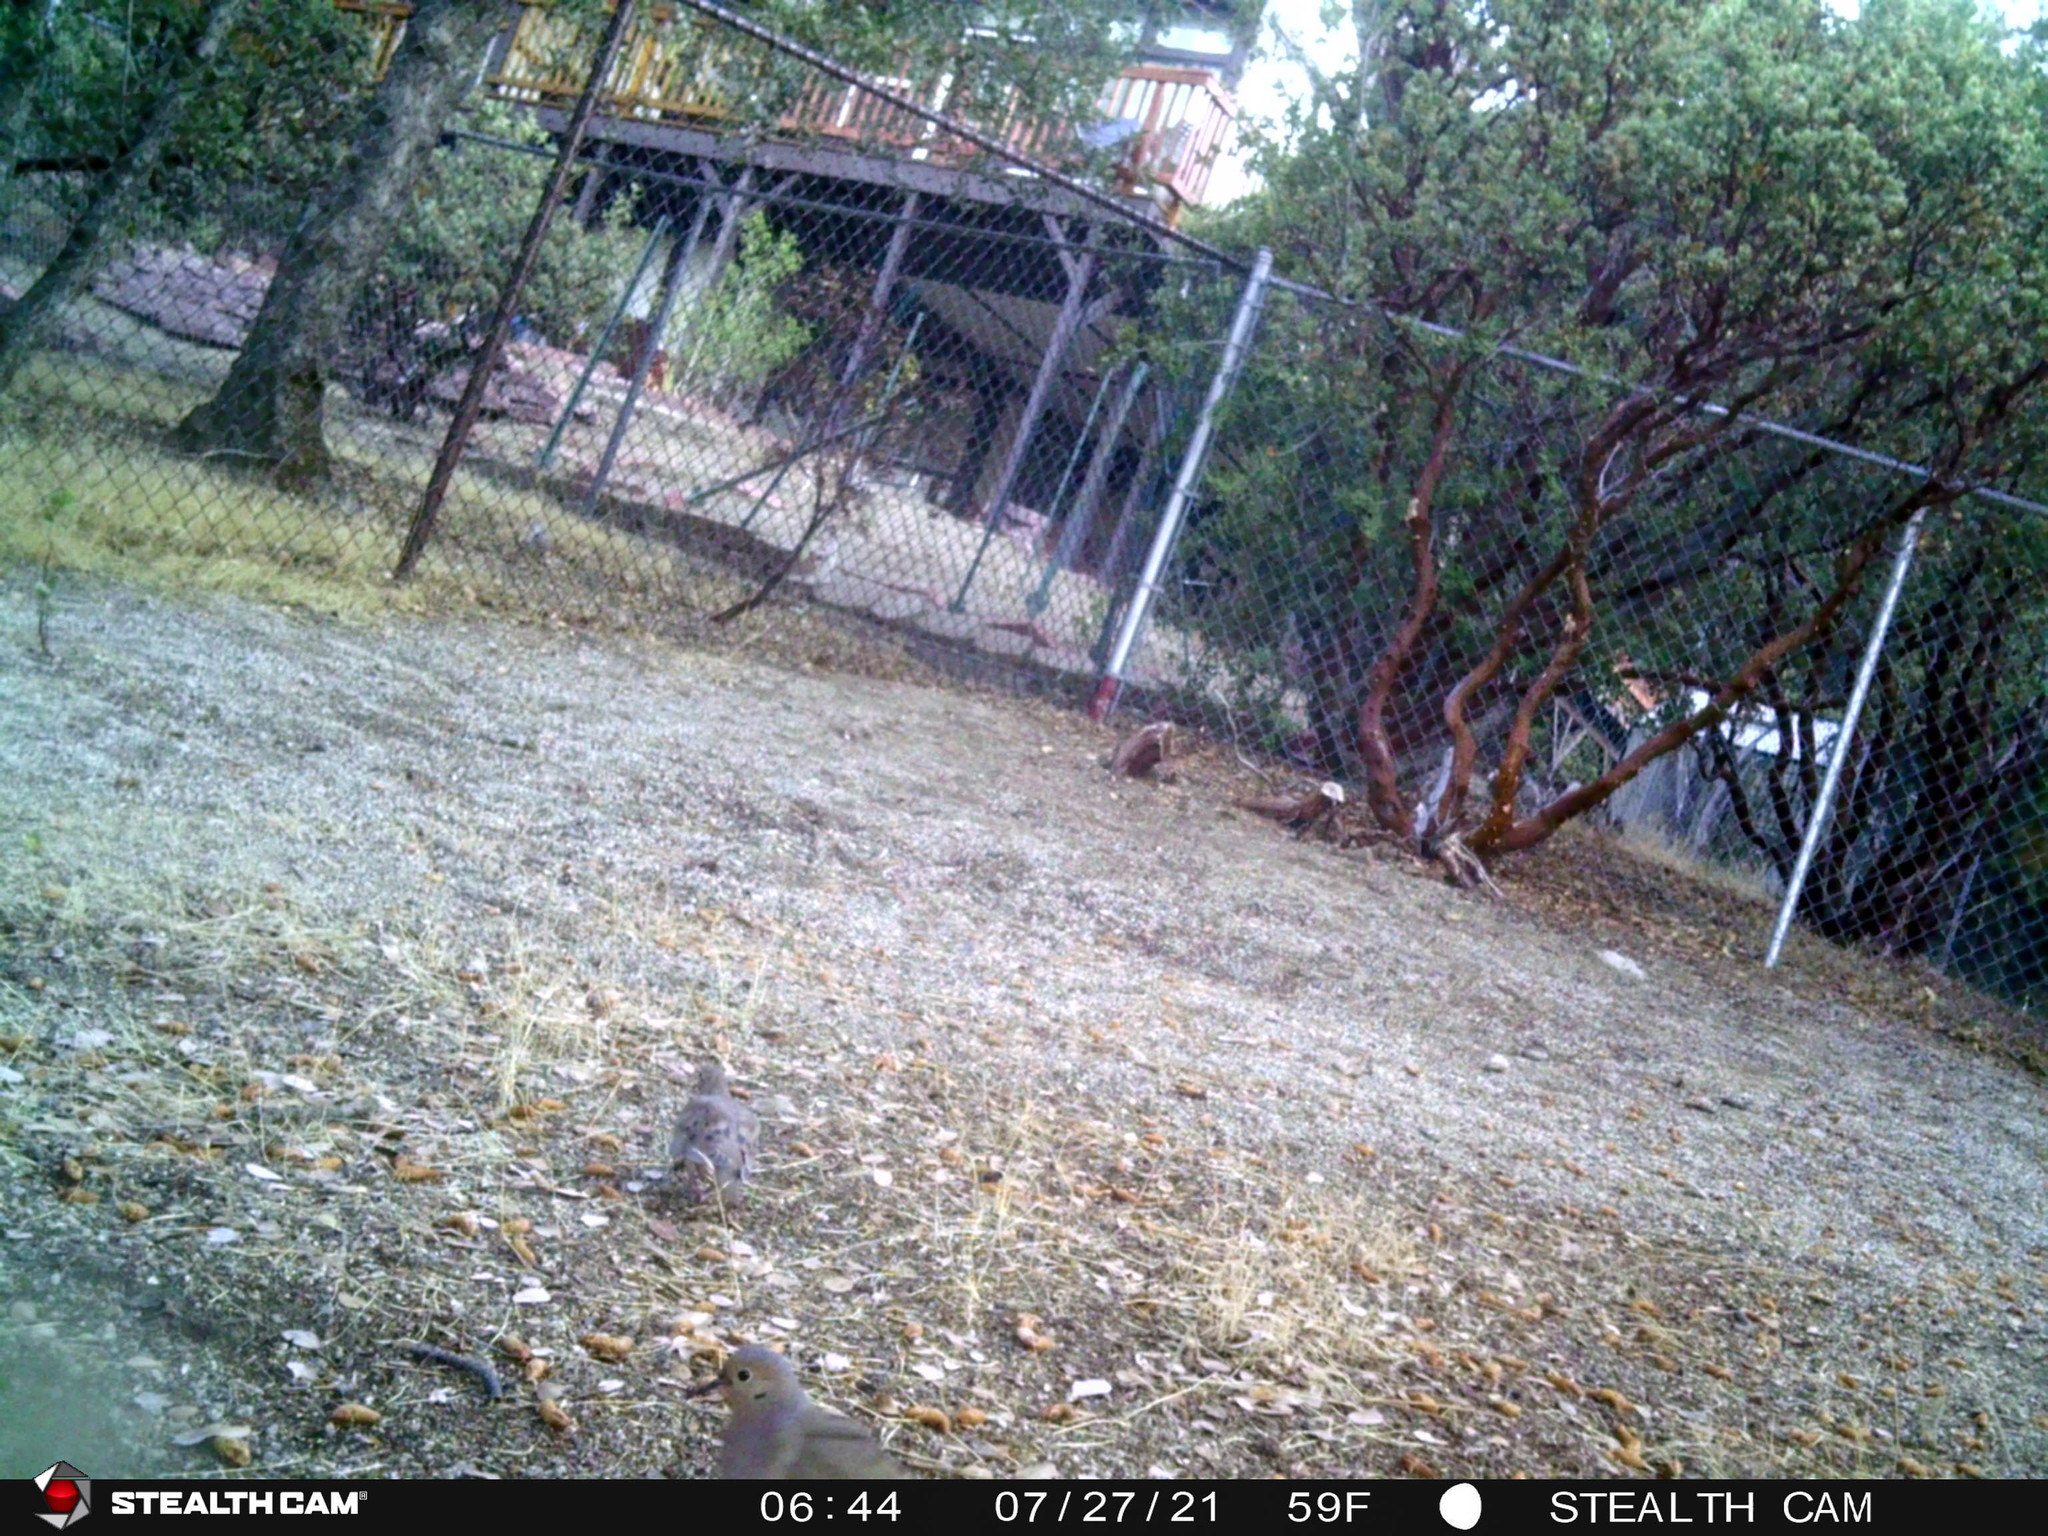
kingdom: Animalia
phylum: Chordata
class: Aves
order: Columbiformes
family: Columbidae
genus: Zenaida
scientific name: Zenaida macroura
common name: Mourning dove
